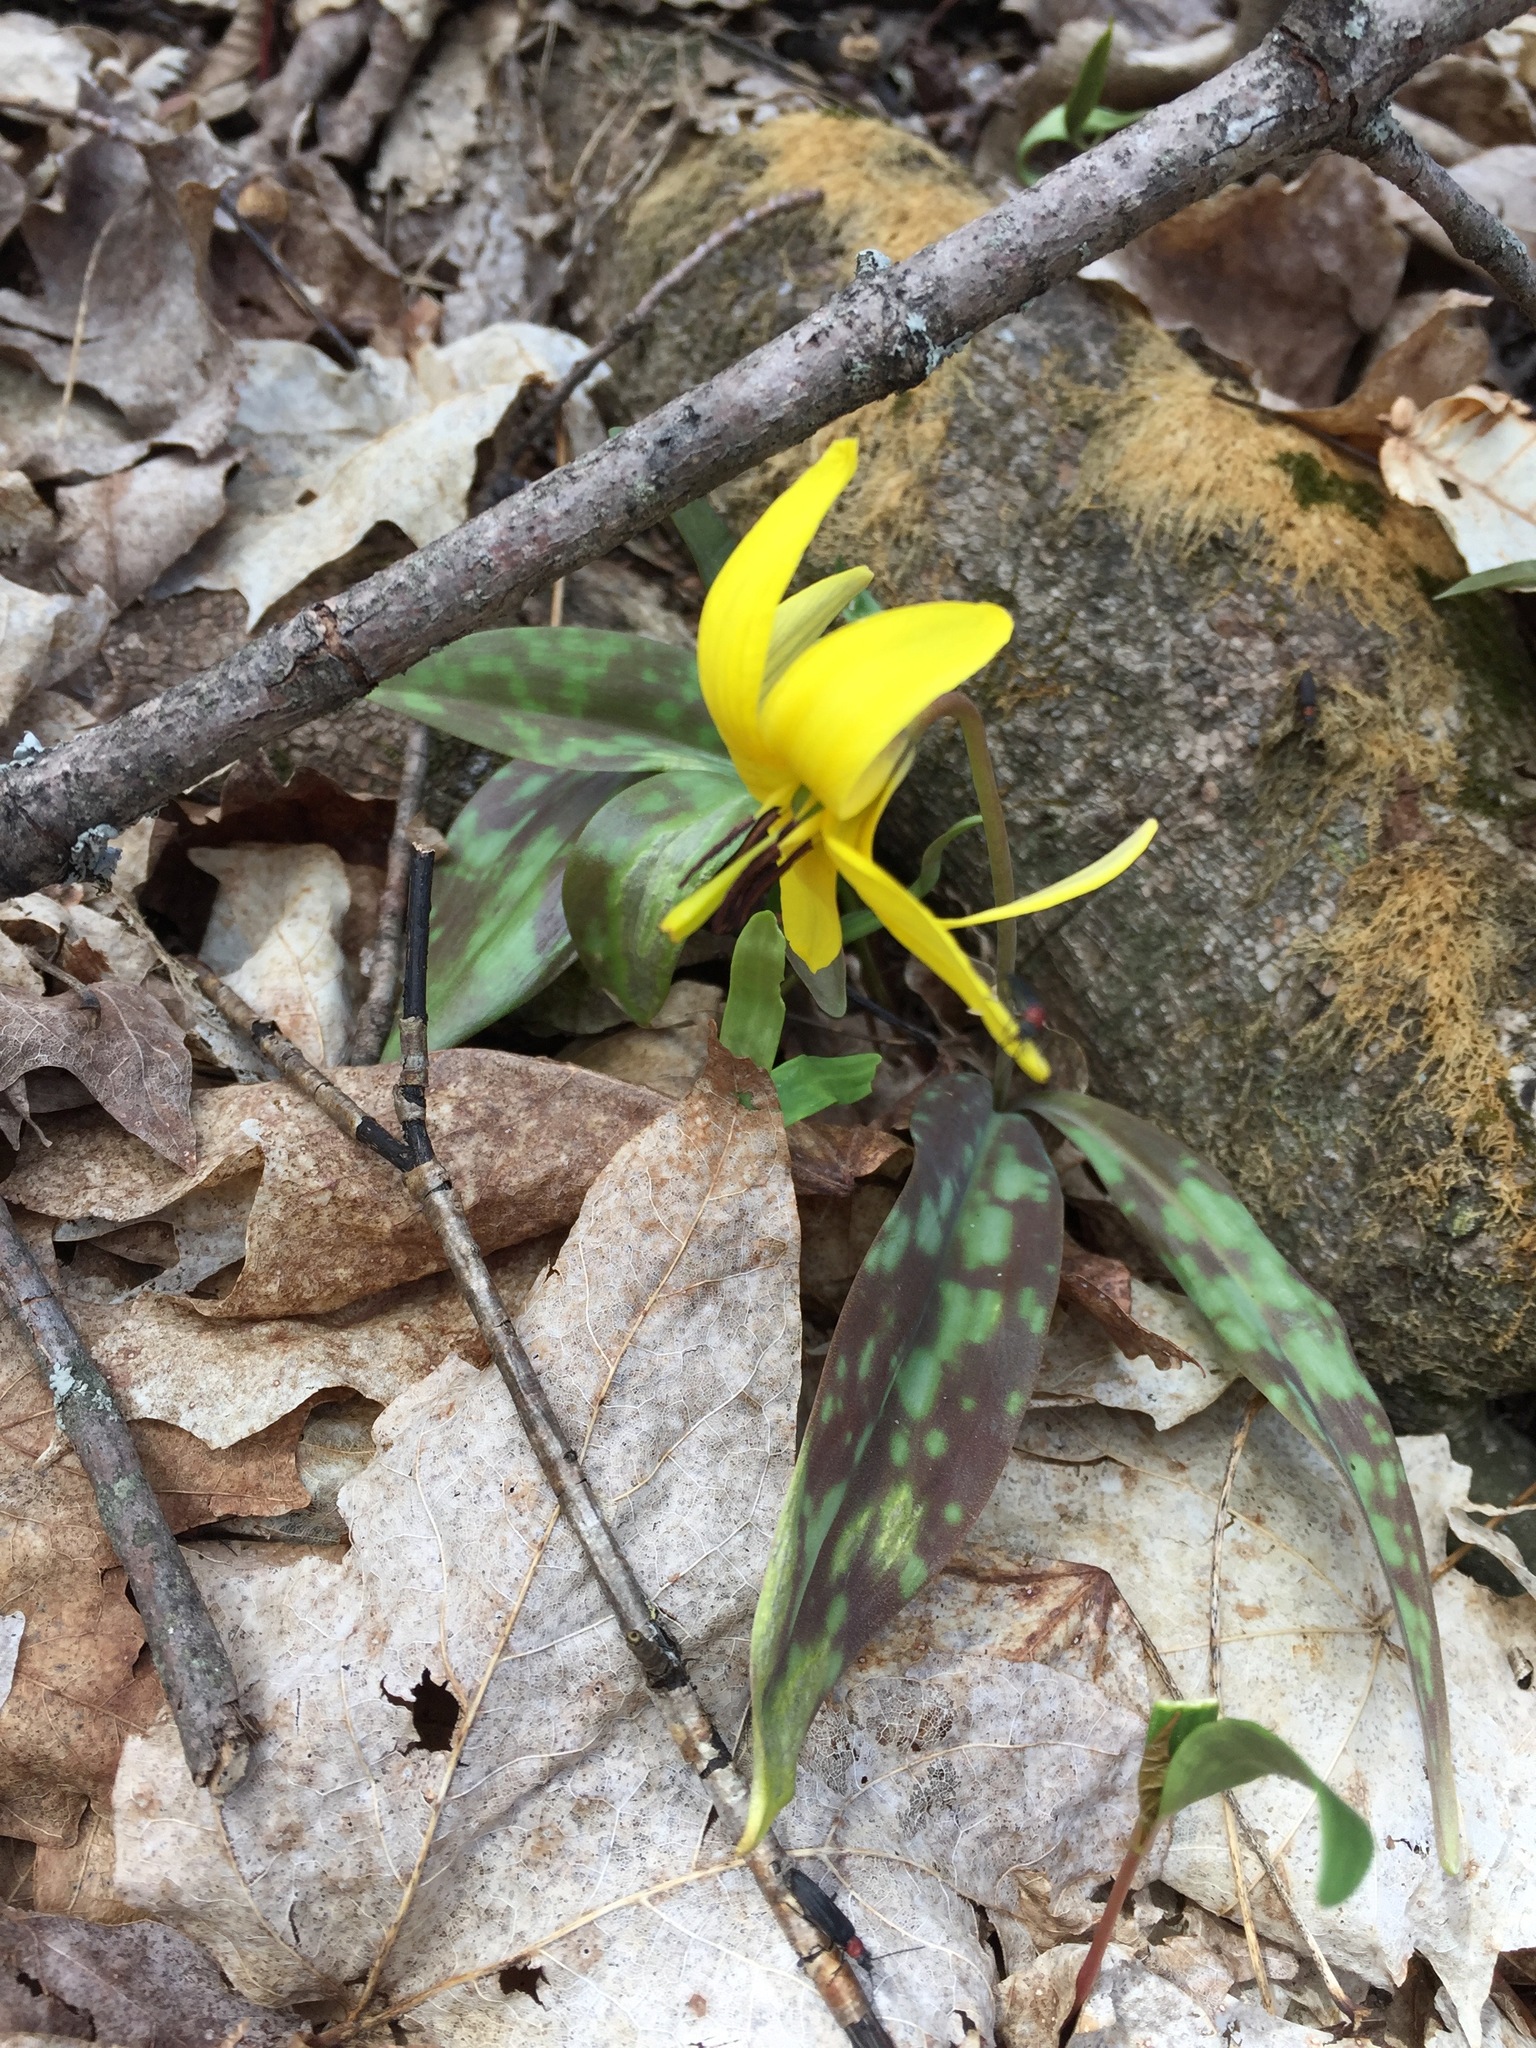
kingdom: Plantae
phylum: Tracheophyta
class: Liliopsida
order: Liliales
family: Liliaceae
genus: Erythronium
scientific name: Erythronium americanum
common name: Yellow adder's-tongue
